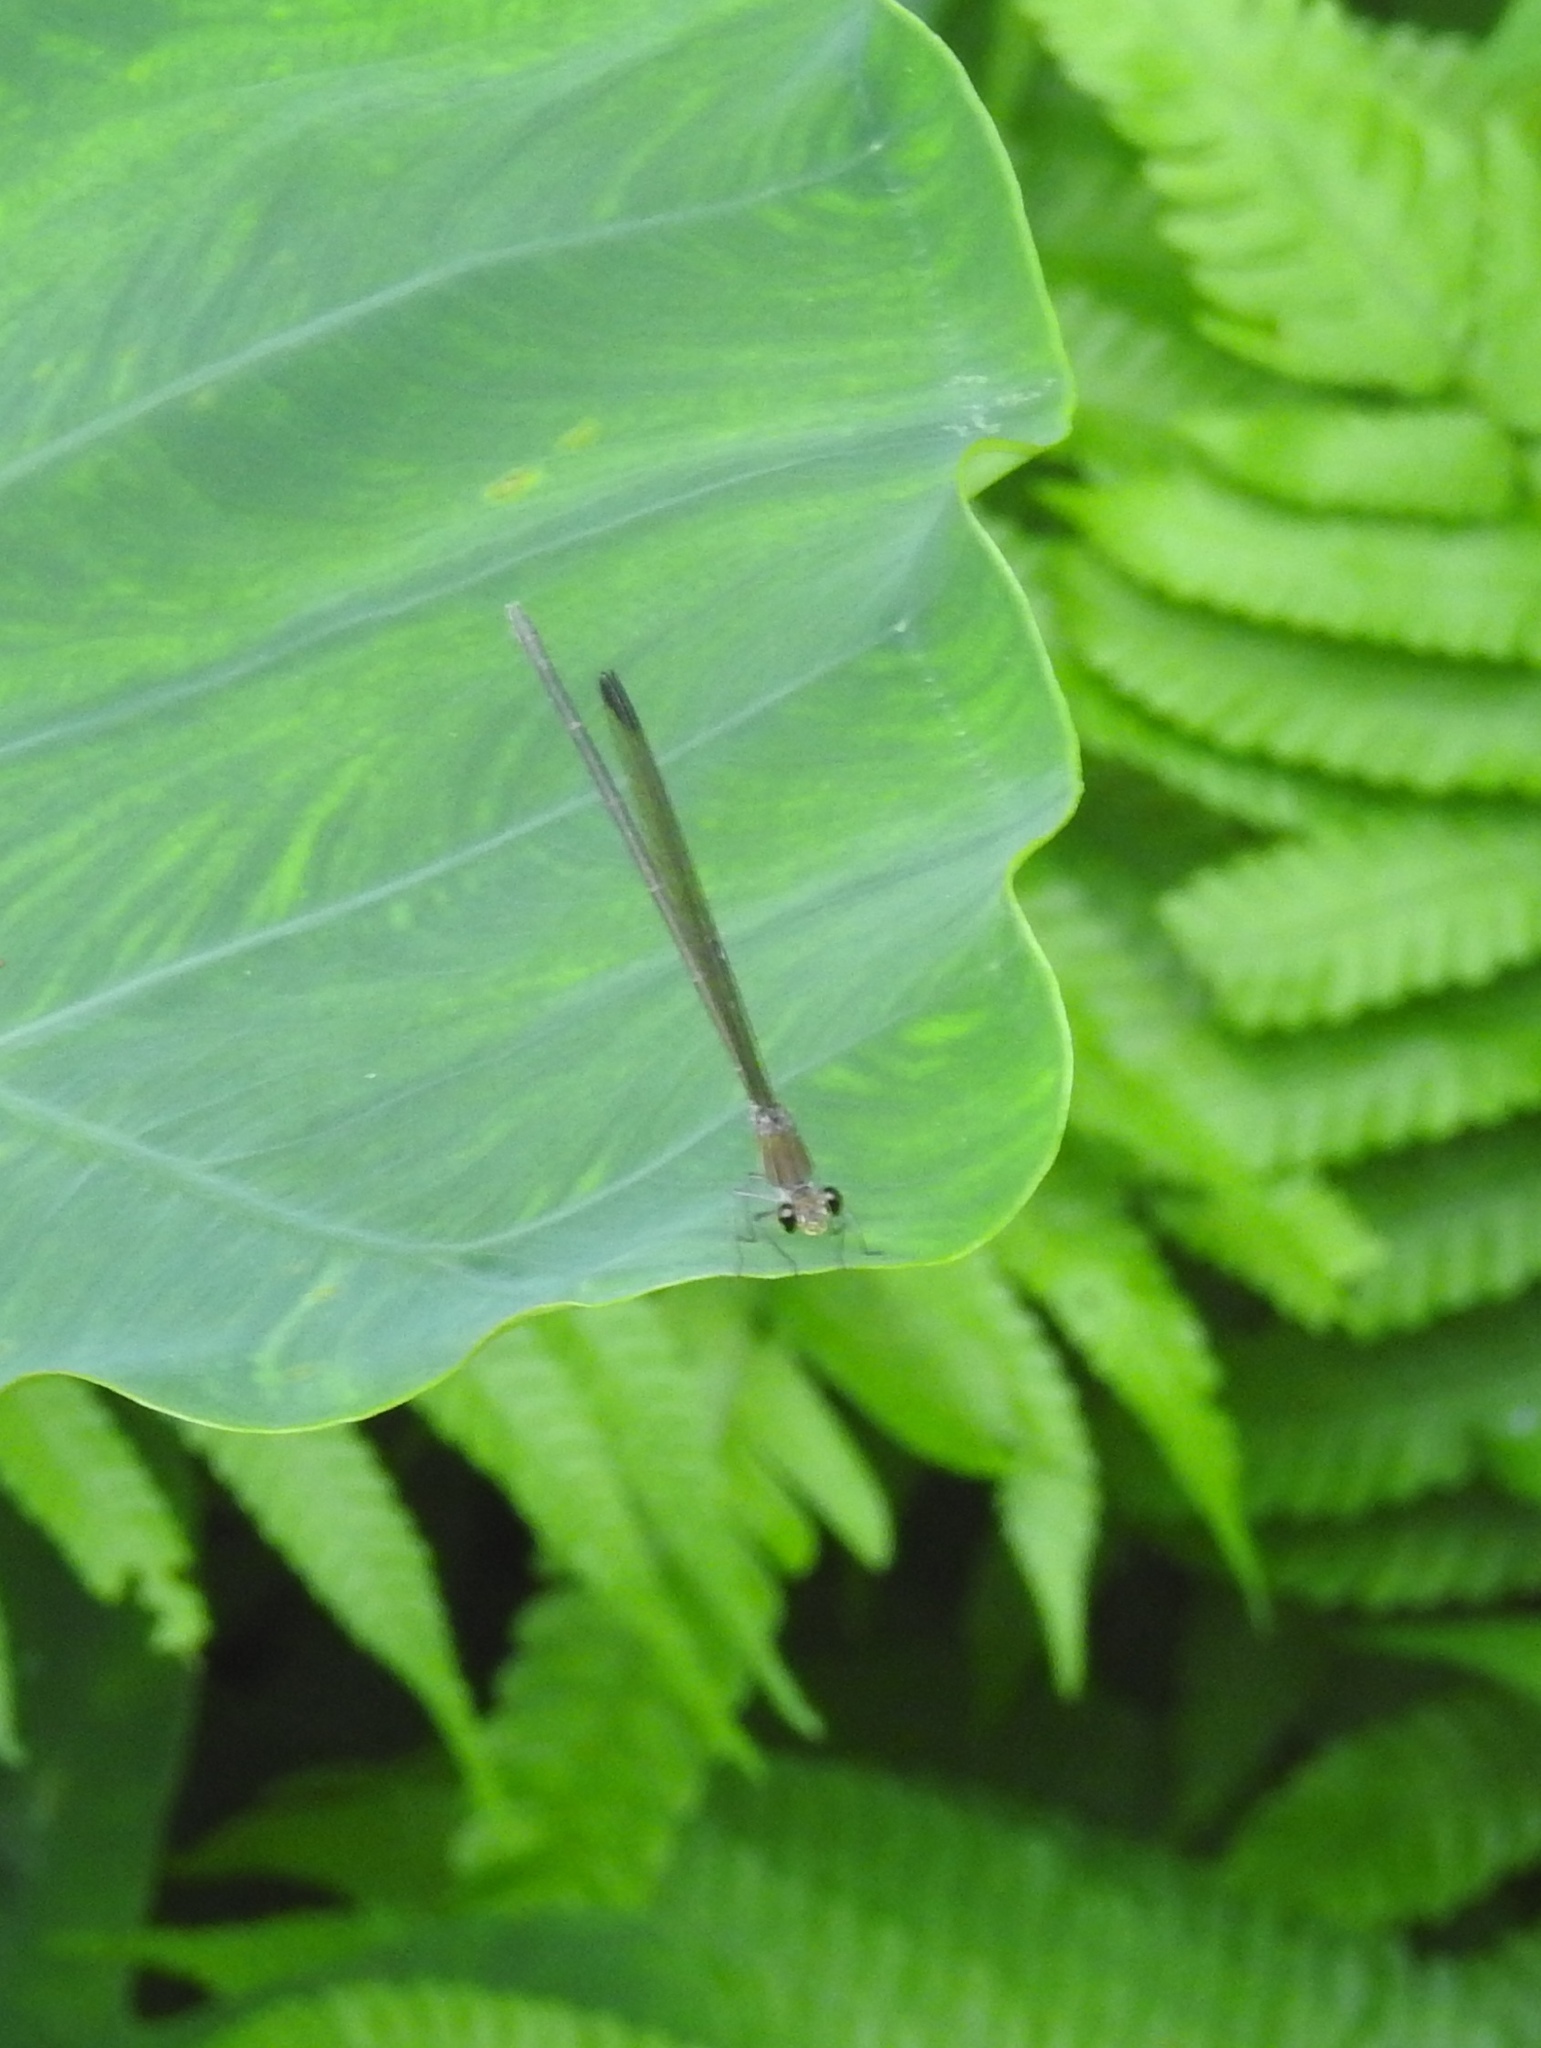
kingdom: Animalia
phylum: Arthropoda
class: Insecta
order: Odonata
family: Calopterygidae
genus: Vestalis
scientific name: Vestalis apicalis
